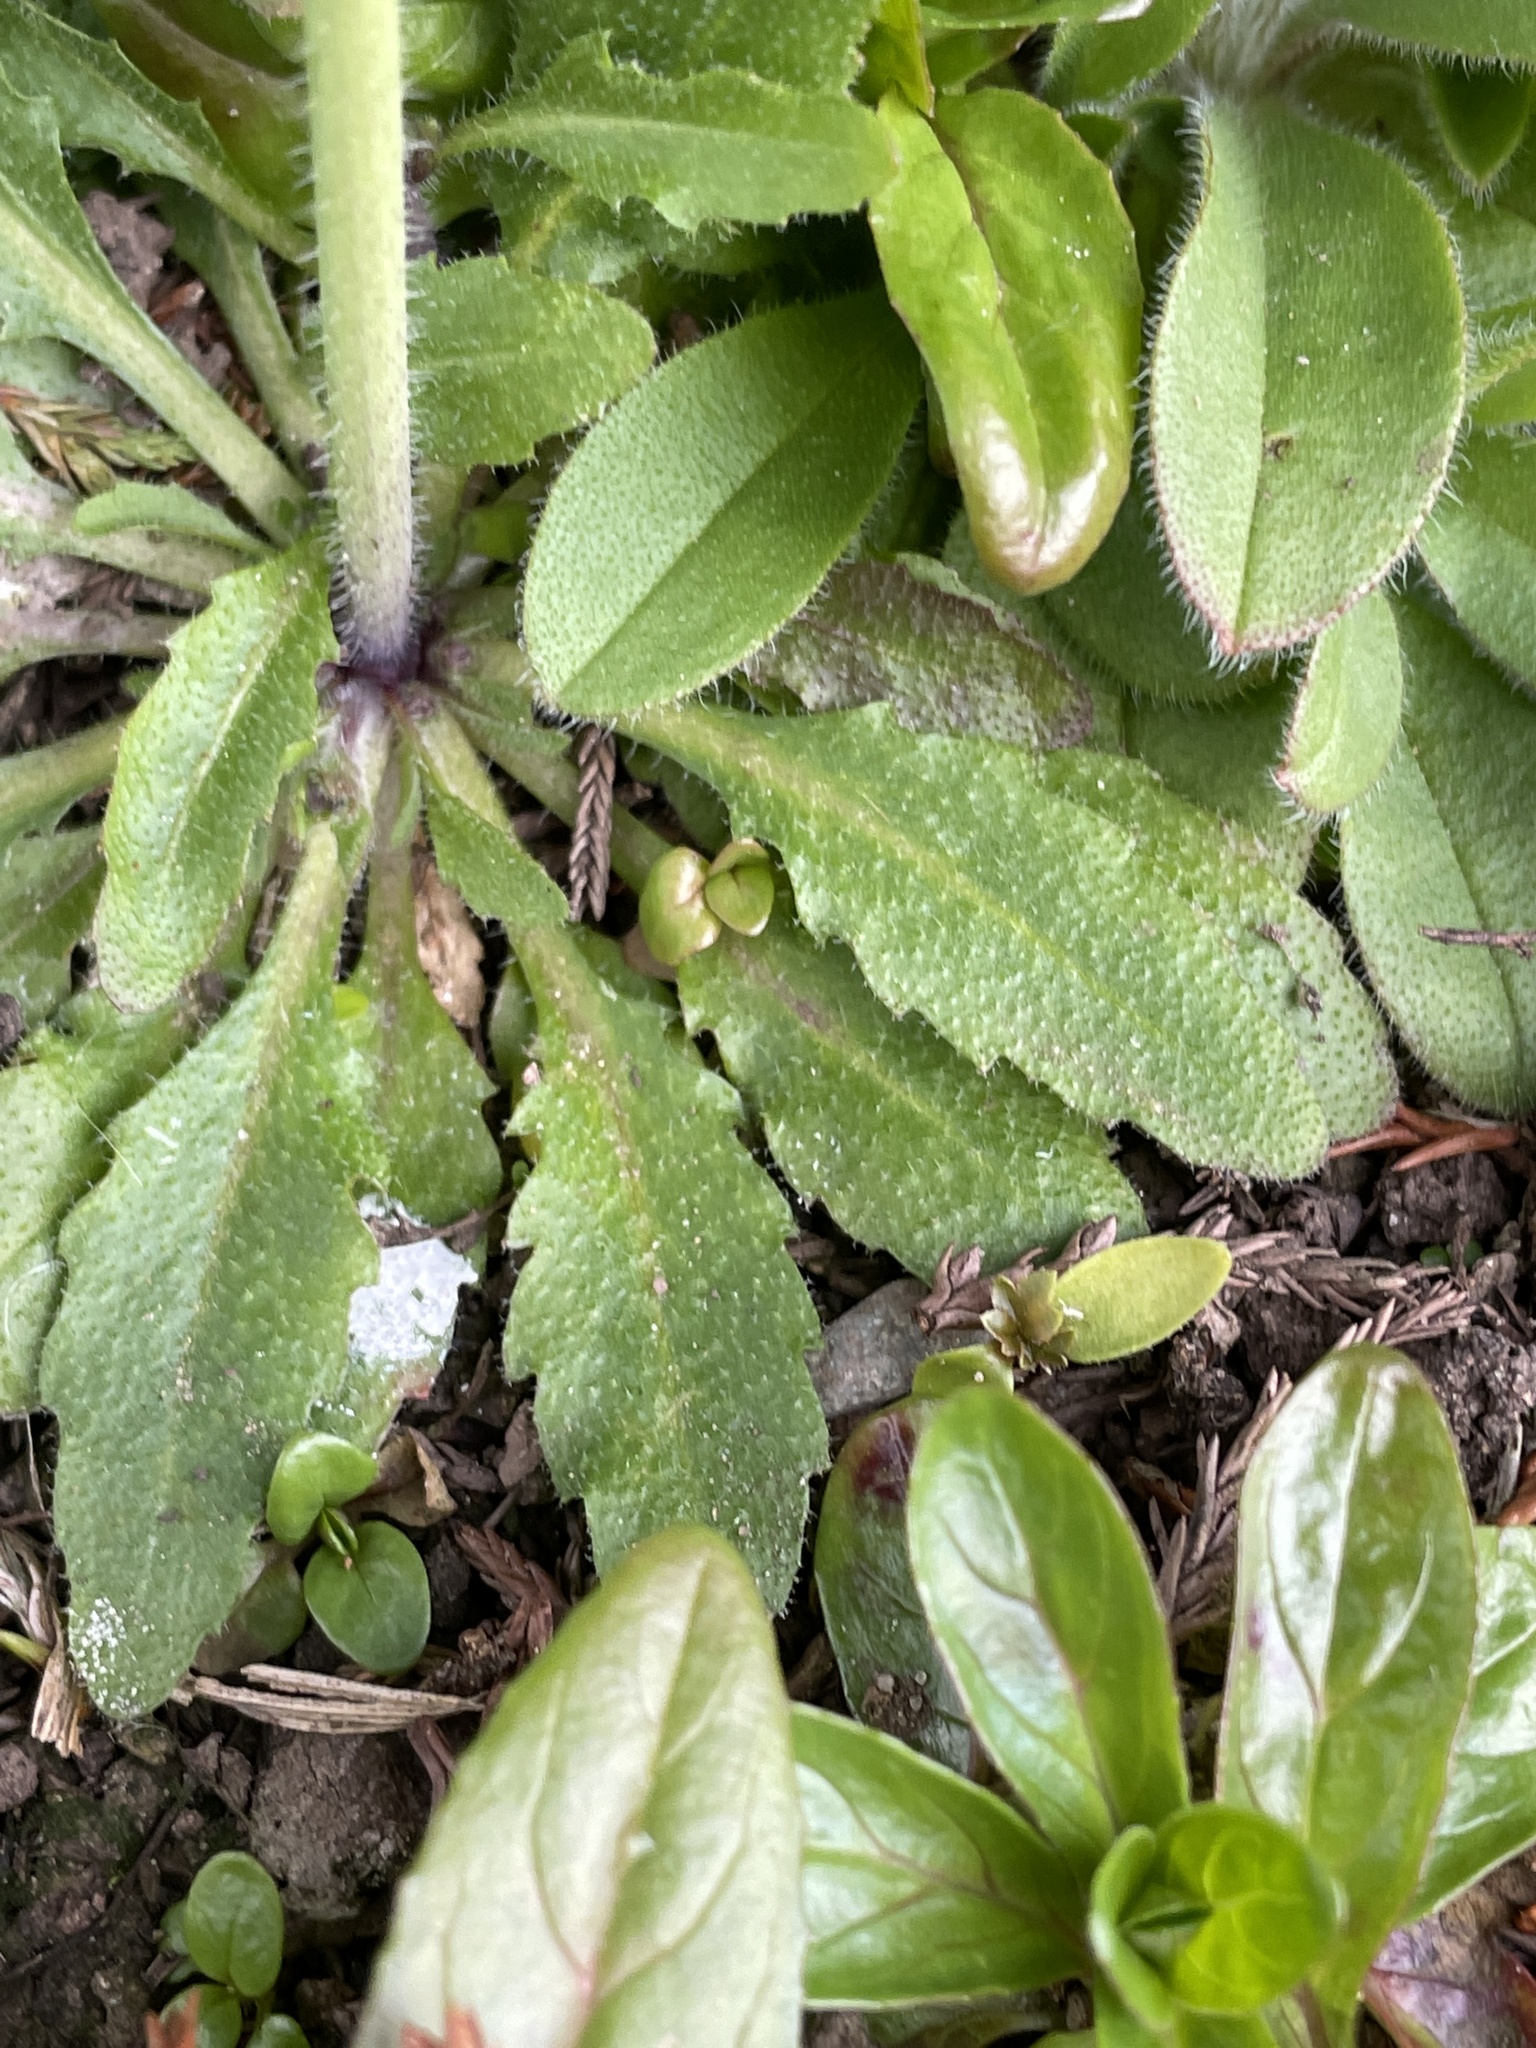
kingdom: Plantae
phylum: Tracheophyta
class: Magnoliopsida
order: Brassicales
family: Brassicaceae
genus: Arabidopsis
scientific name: Arabidopsis thaliana
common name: Thale cress
